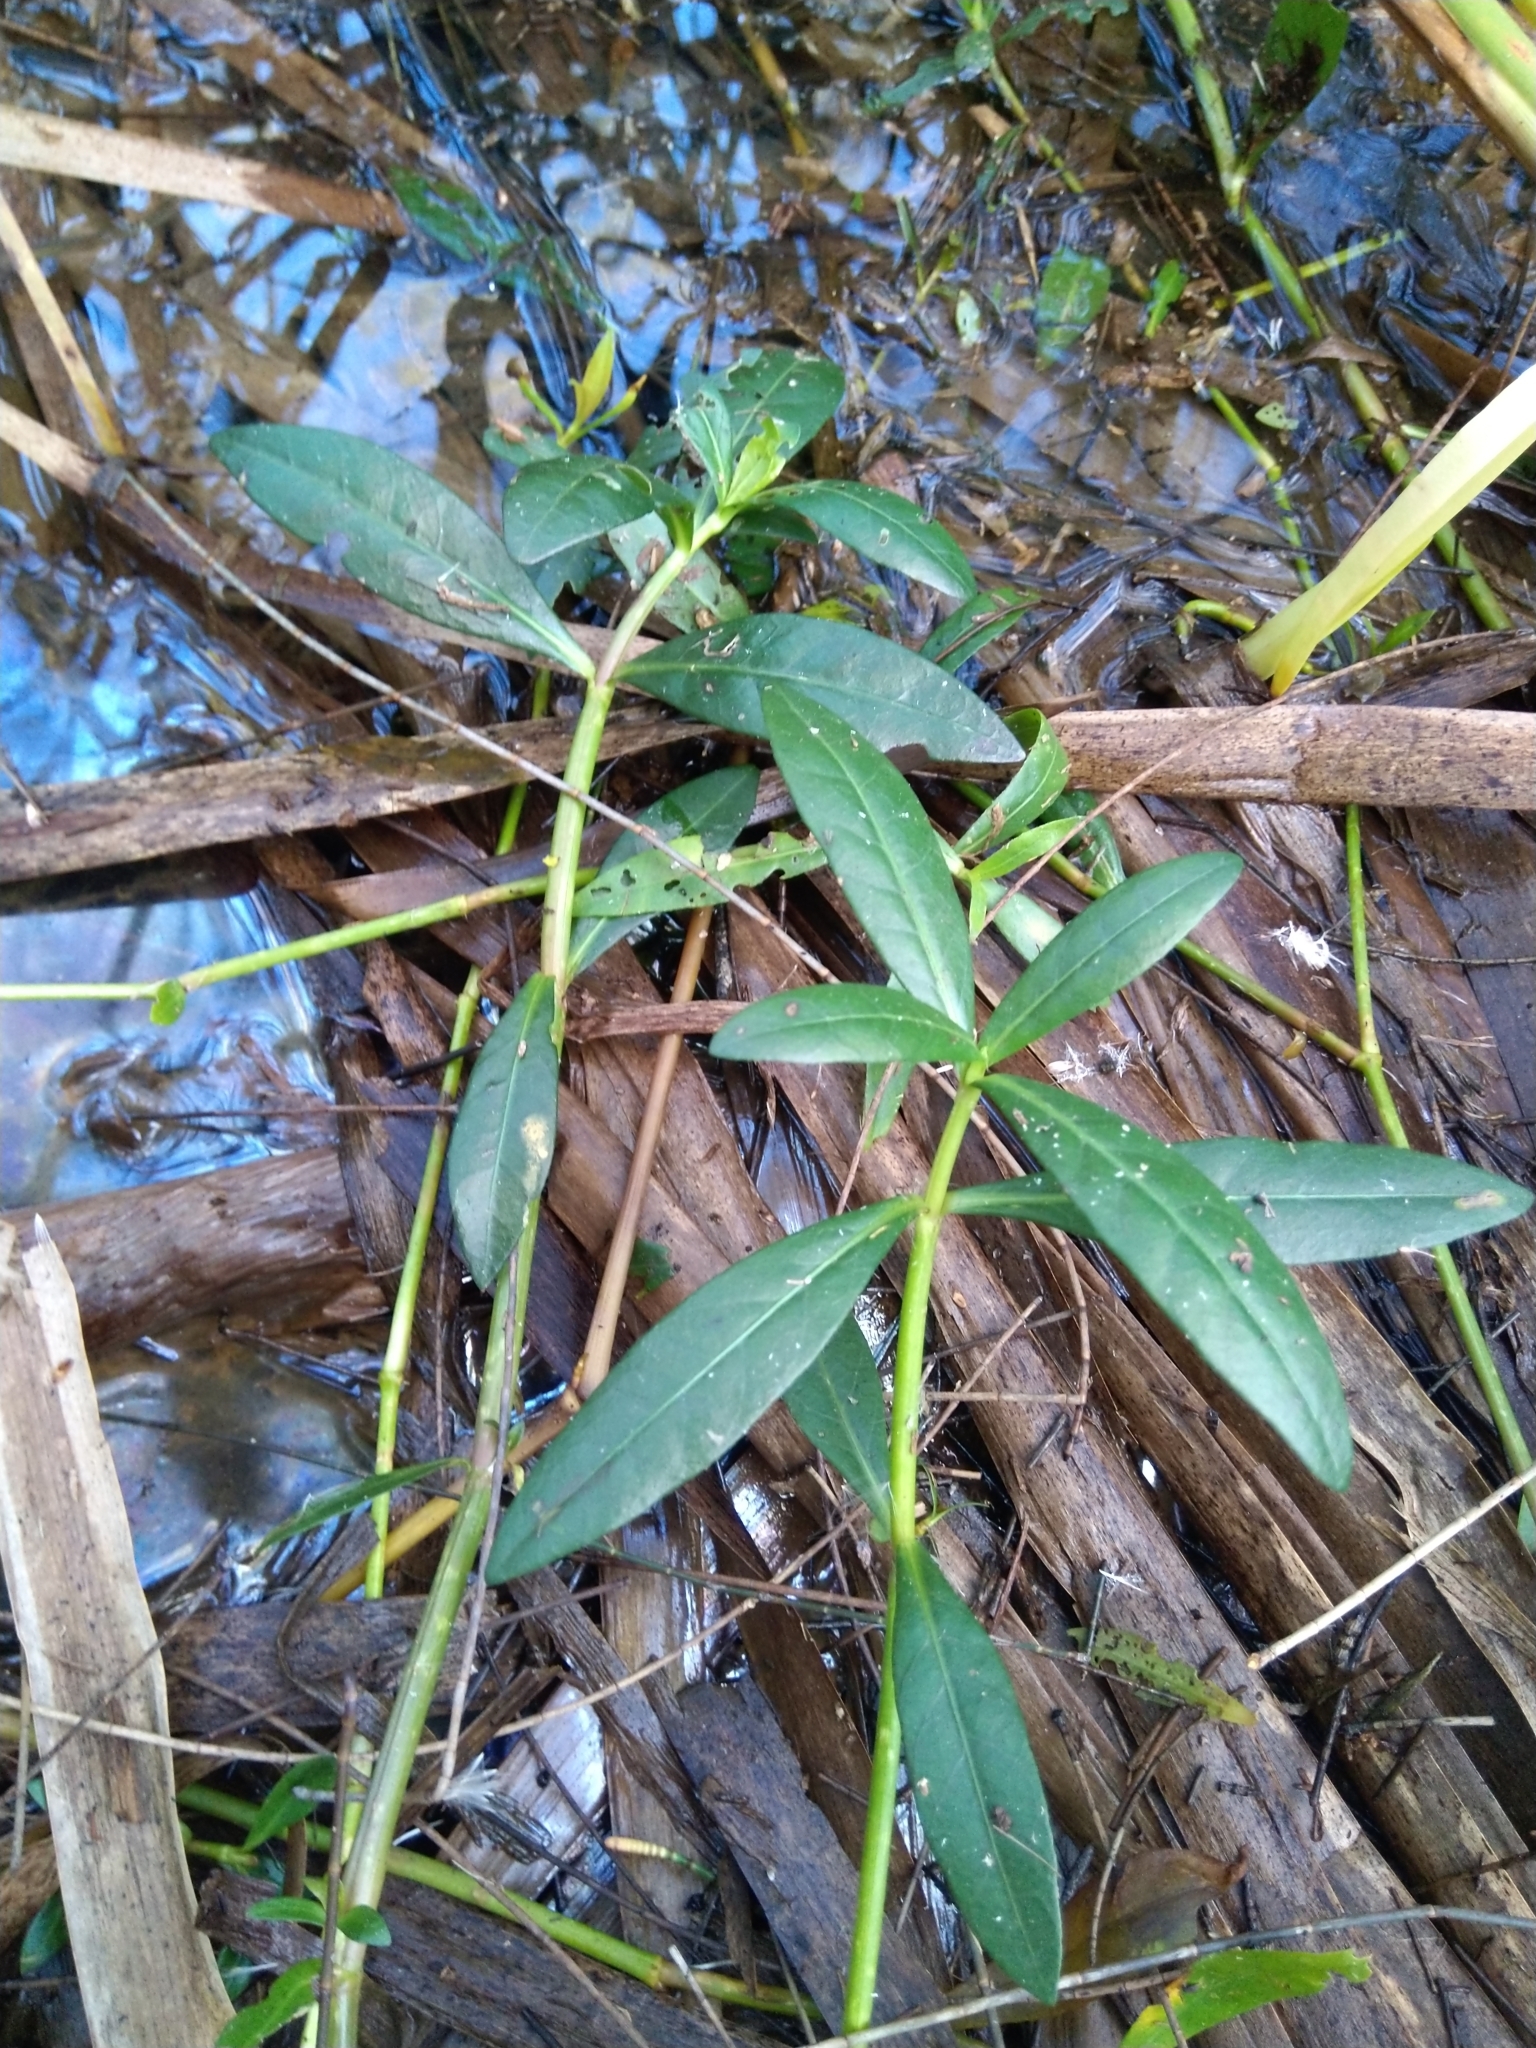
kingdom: Plantae
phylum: Tracheophyta
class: Magnoliopsida
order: Caryophyllales
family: Amaranthaceae
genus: Alternanthera
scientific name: Alternanthera philoxeroides
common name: Alligatorweed
